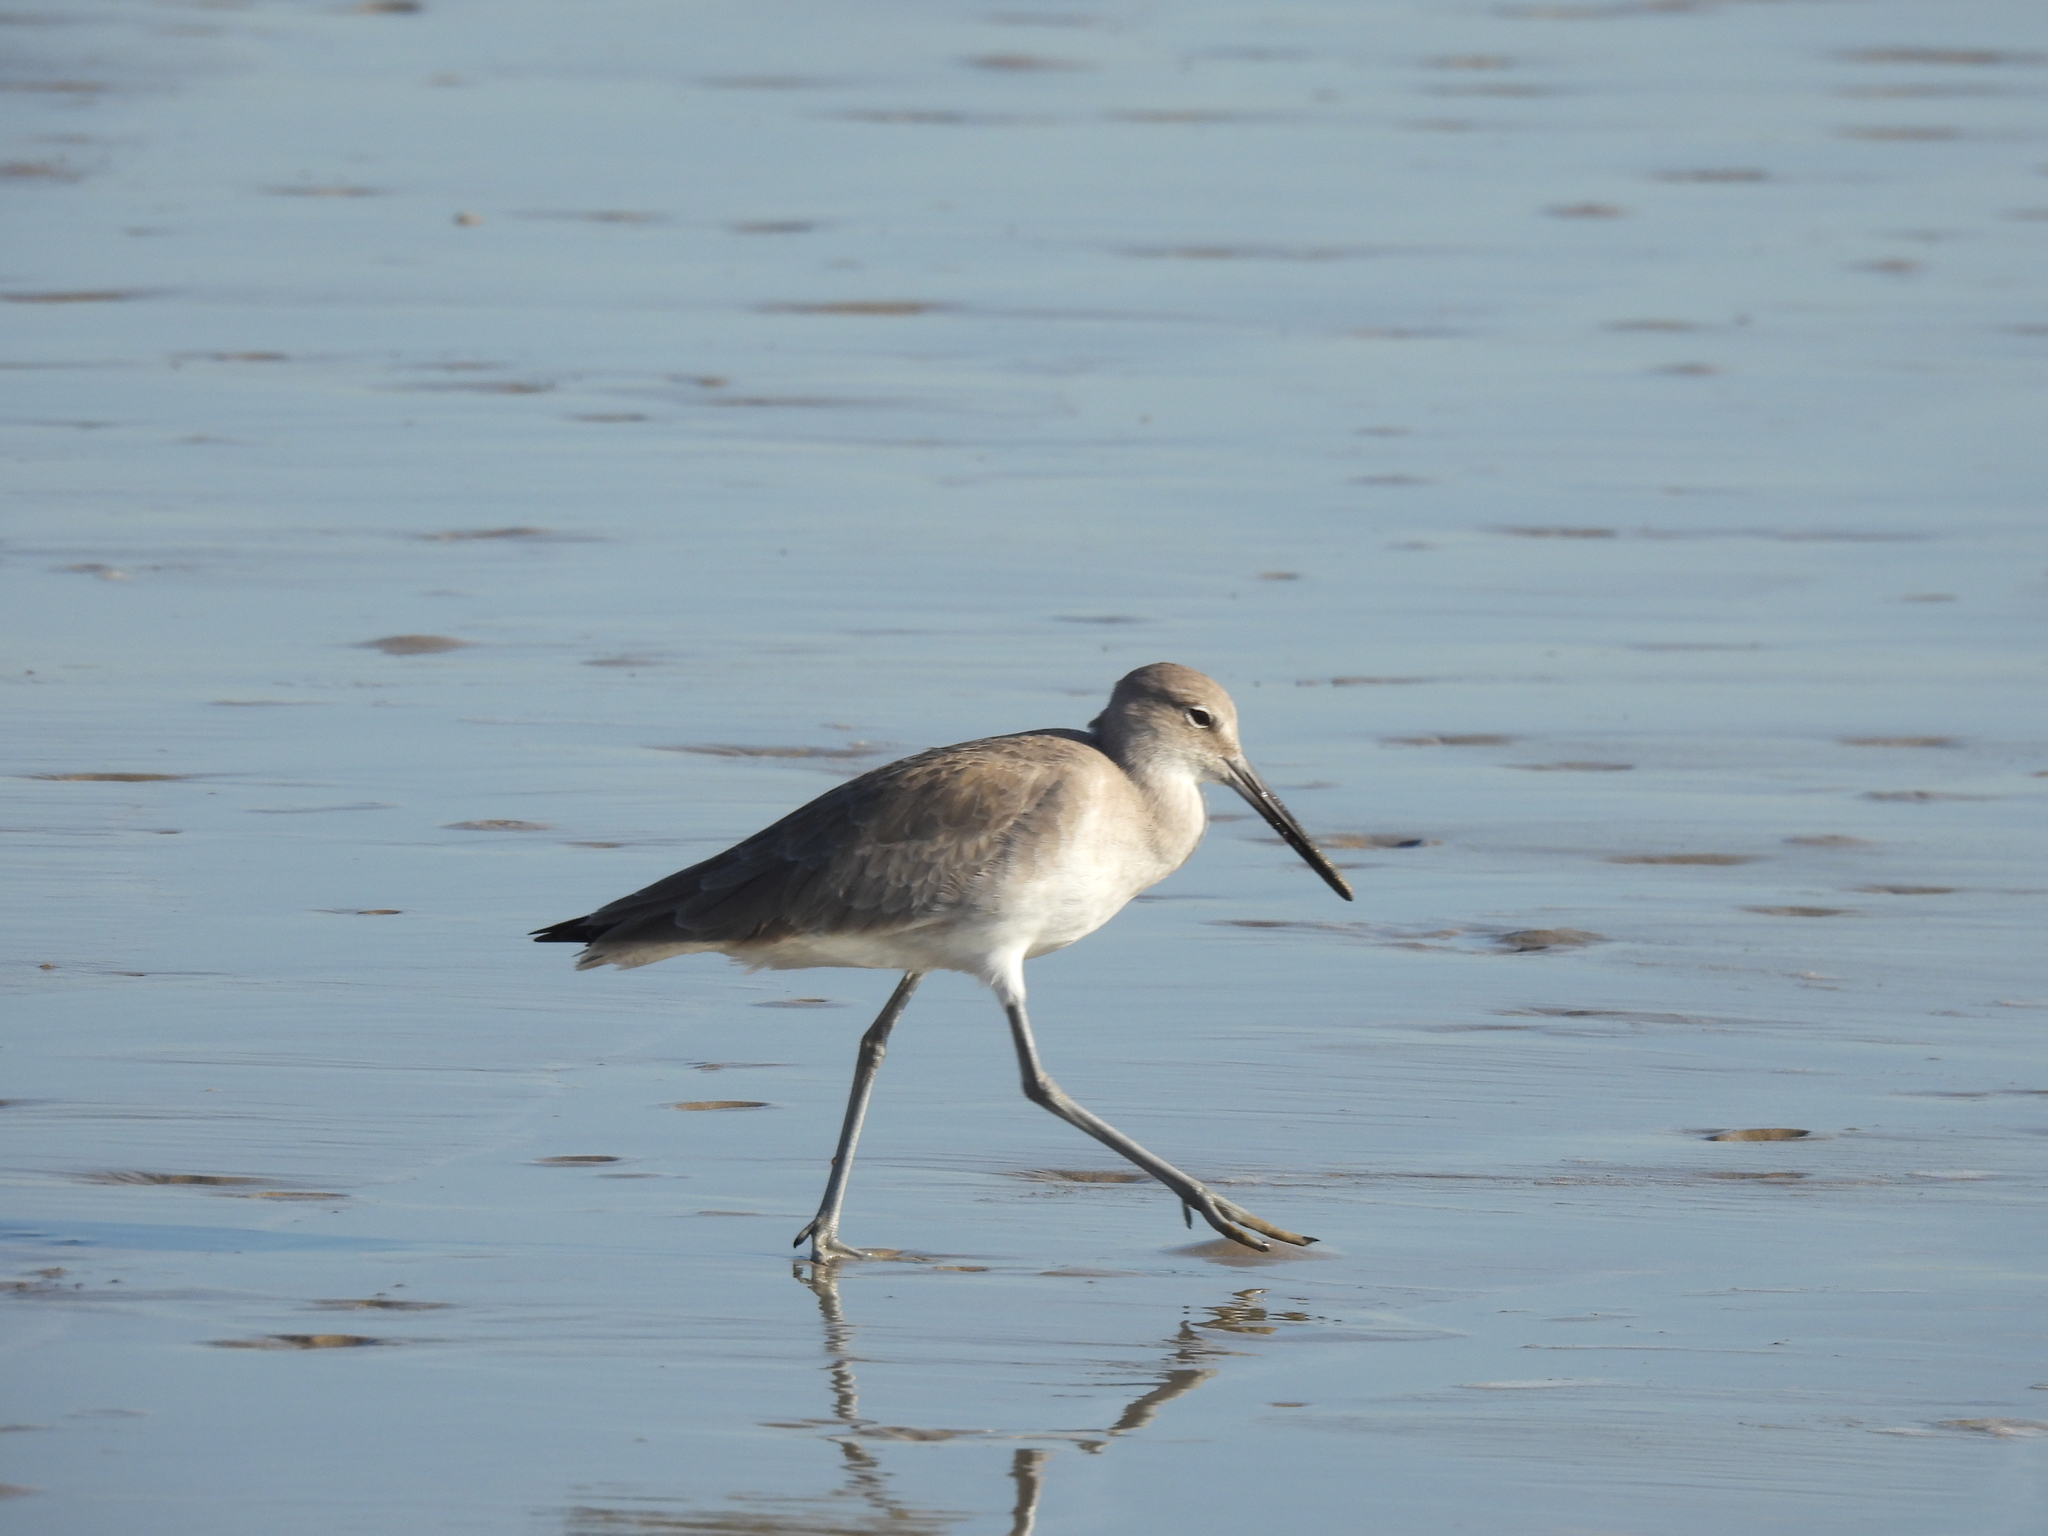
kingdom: Animalia
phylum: Chordata
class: Aves
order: Charadriiformes
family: Scolopacidae
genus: Tringa
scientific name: Tringa semipalmata
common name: Willet
